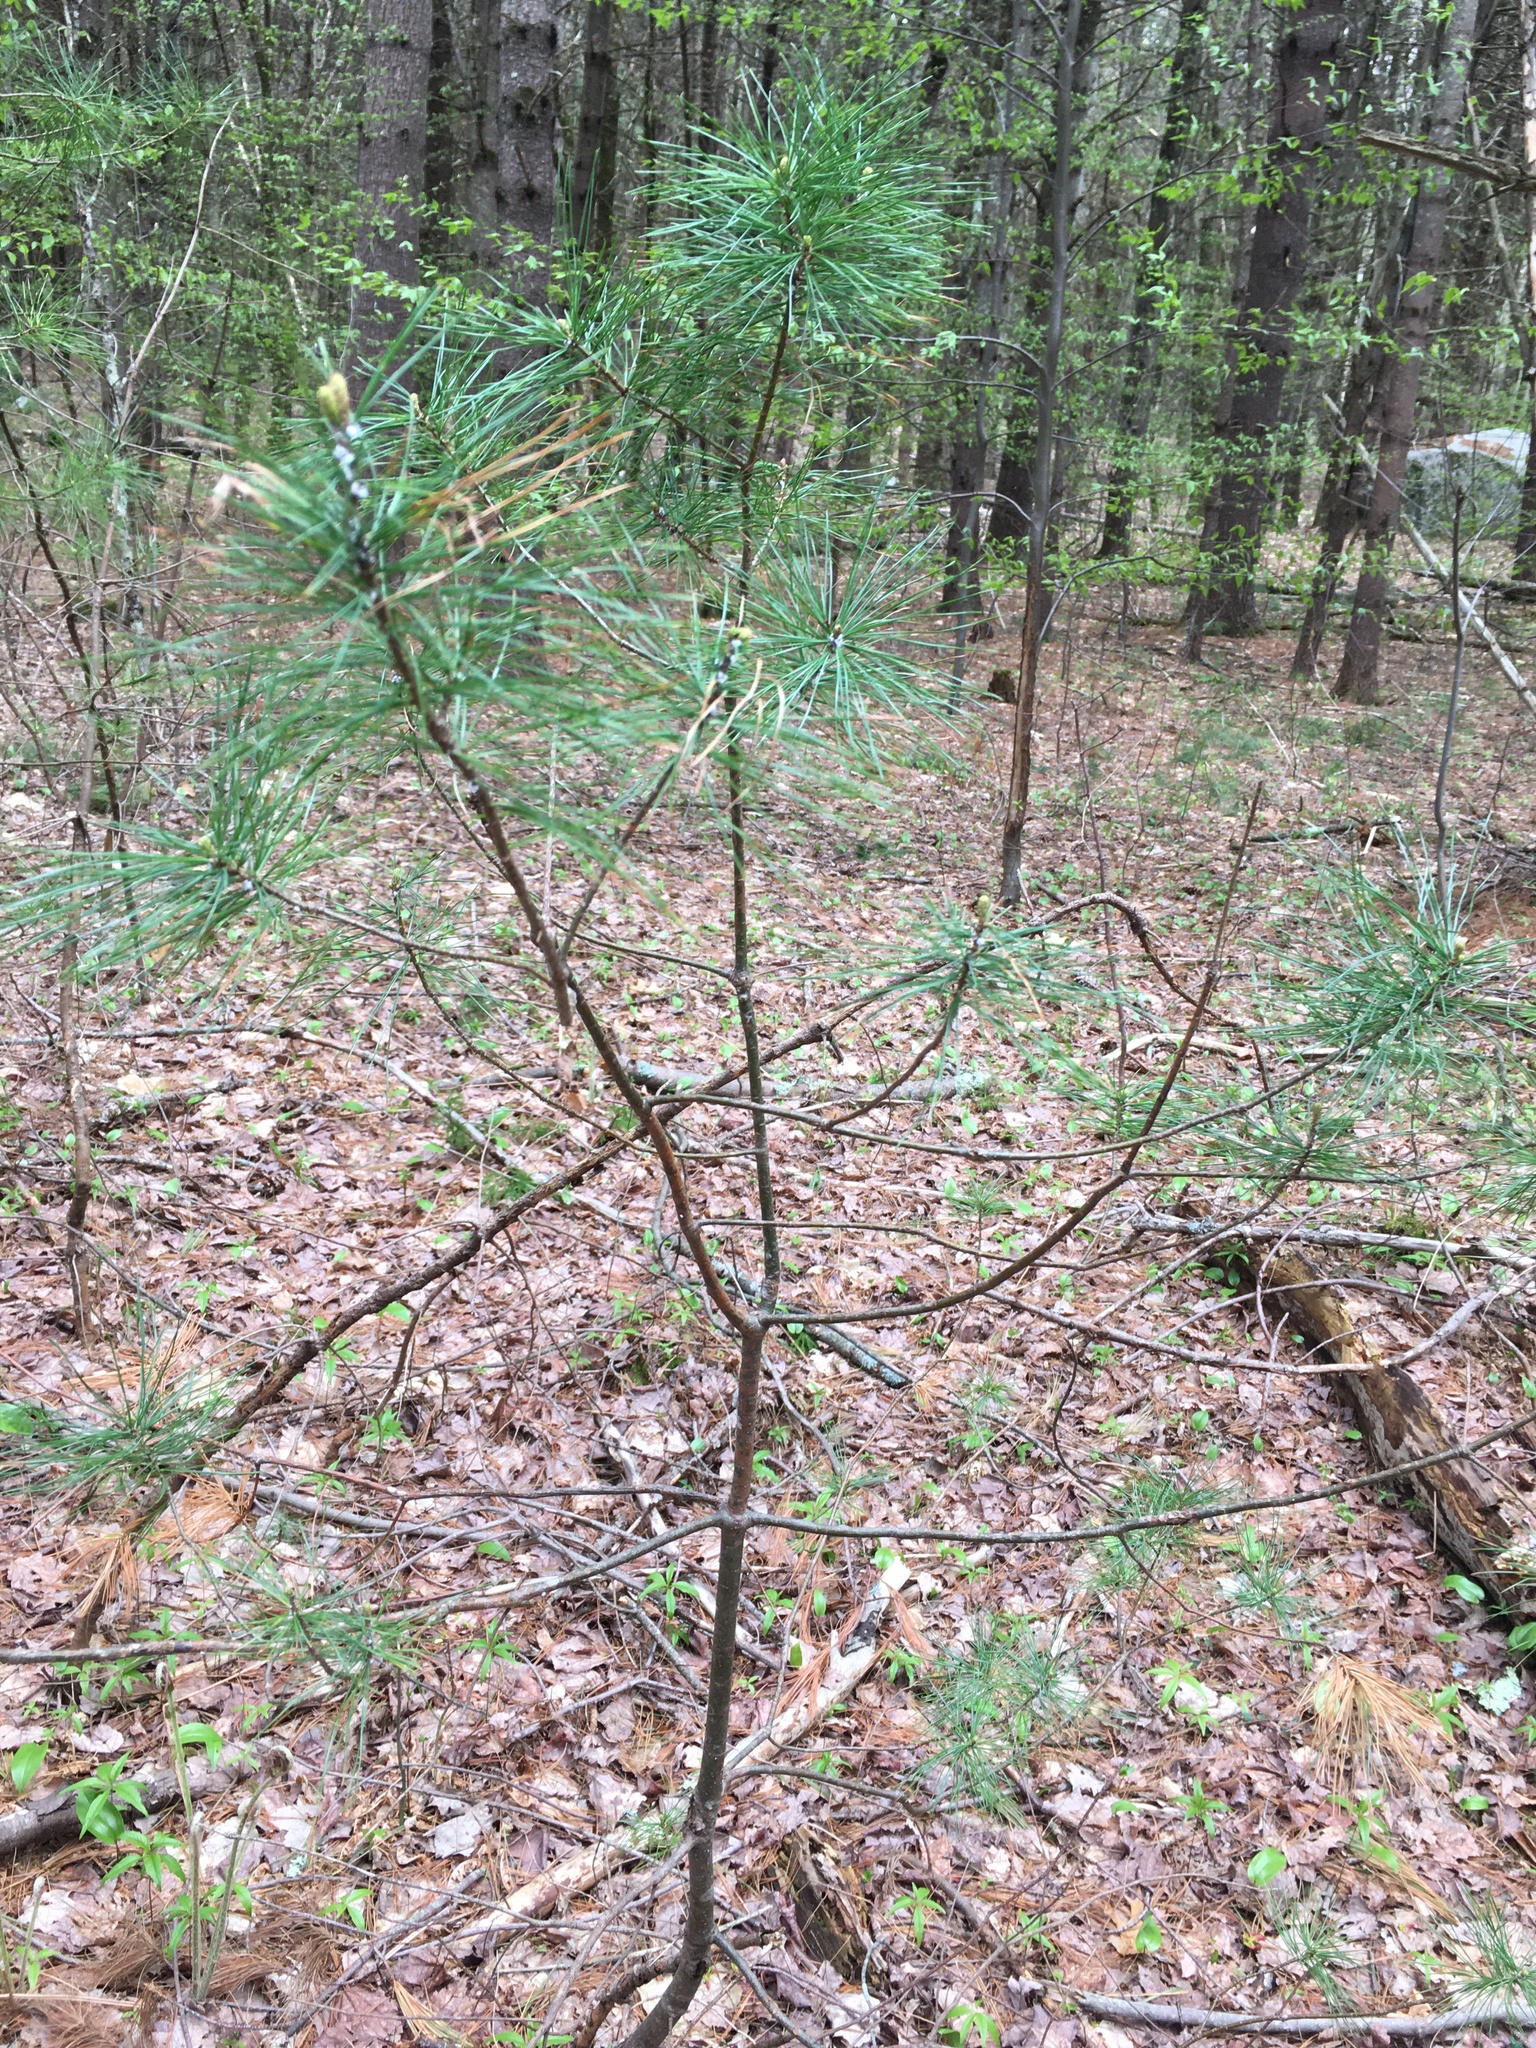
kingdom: Plantae
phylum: Tracheophyta
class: Pinopsida
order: Pinales
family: Pinaceae
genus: Pinus
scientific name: Pinus strobus
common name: Weymouth pine
